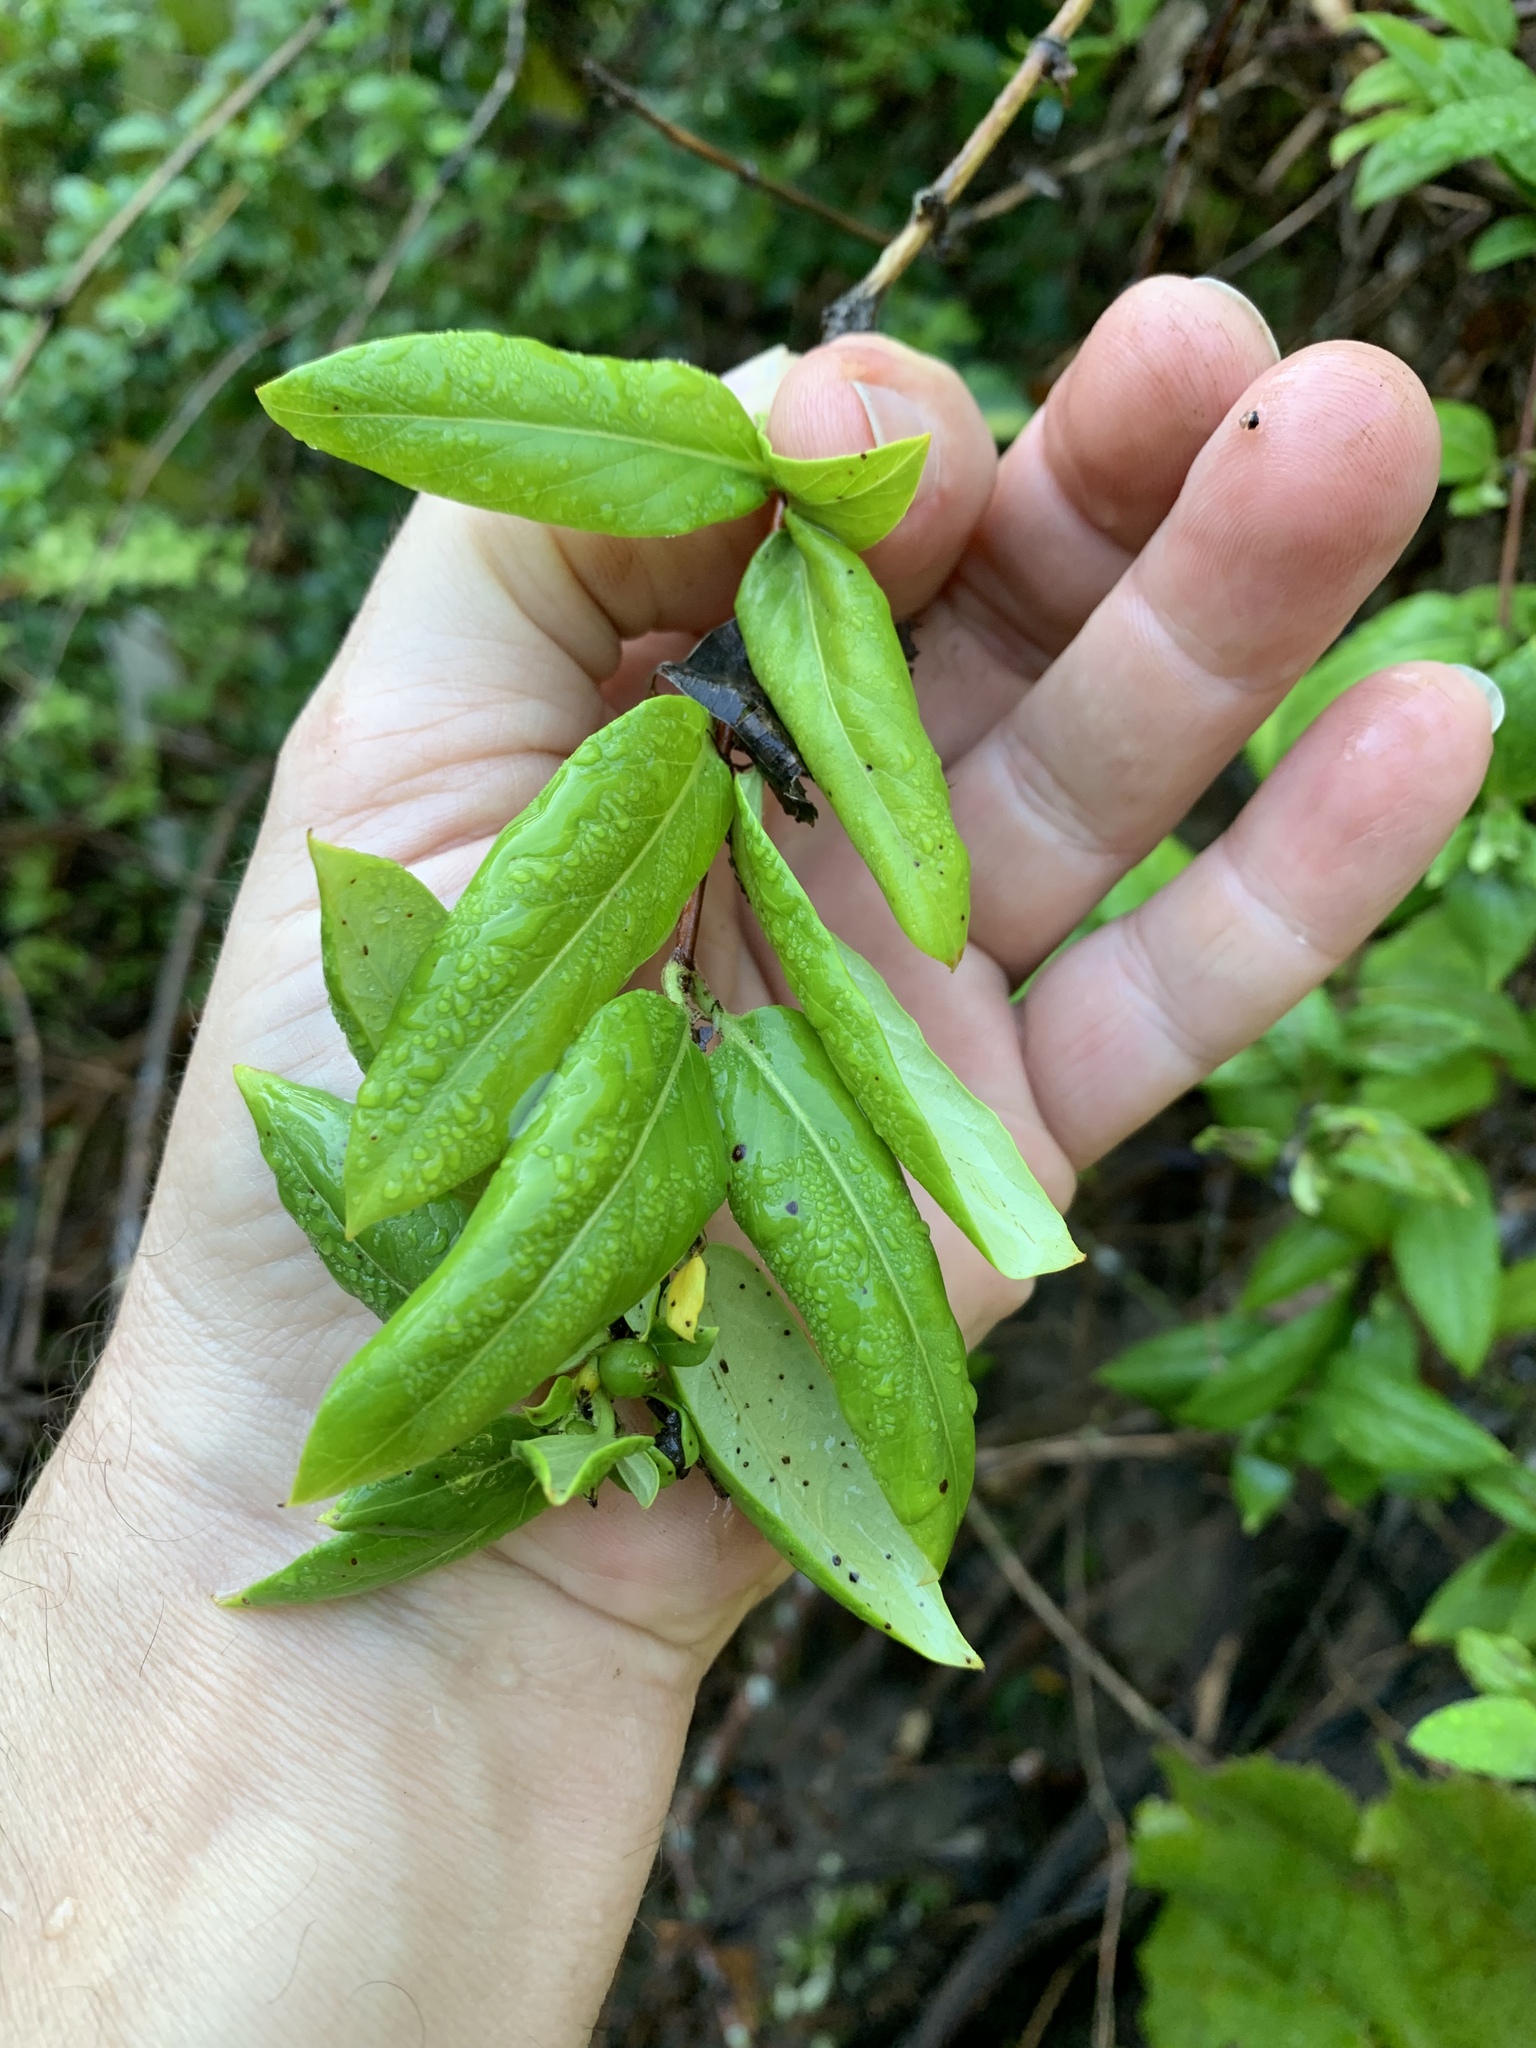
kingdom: Plantae
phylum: Tracheophyta
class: Magnoliopsida
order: Dipsacales
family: Caprifoliaceae
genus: Lonicera
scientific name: Lonicera japonica
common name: Japanese honeysuckle
